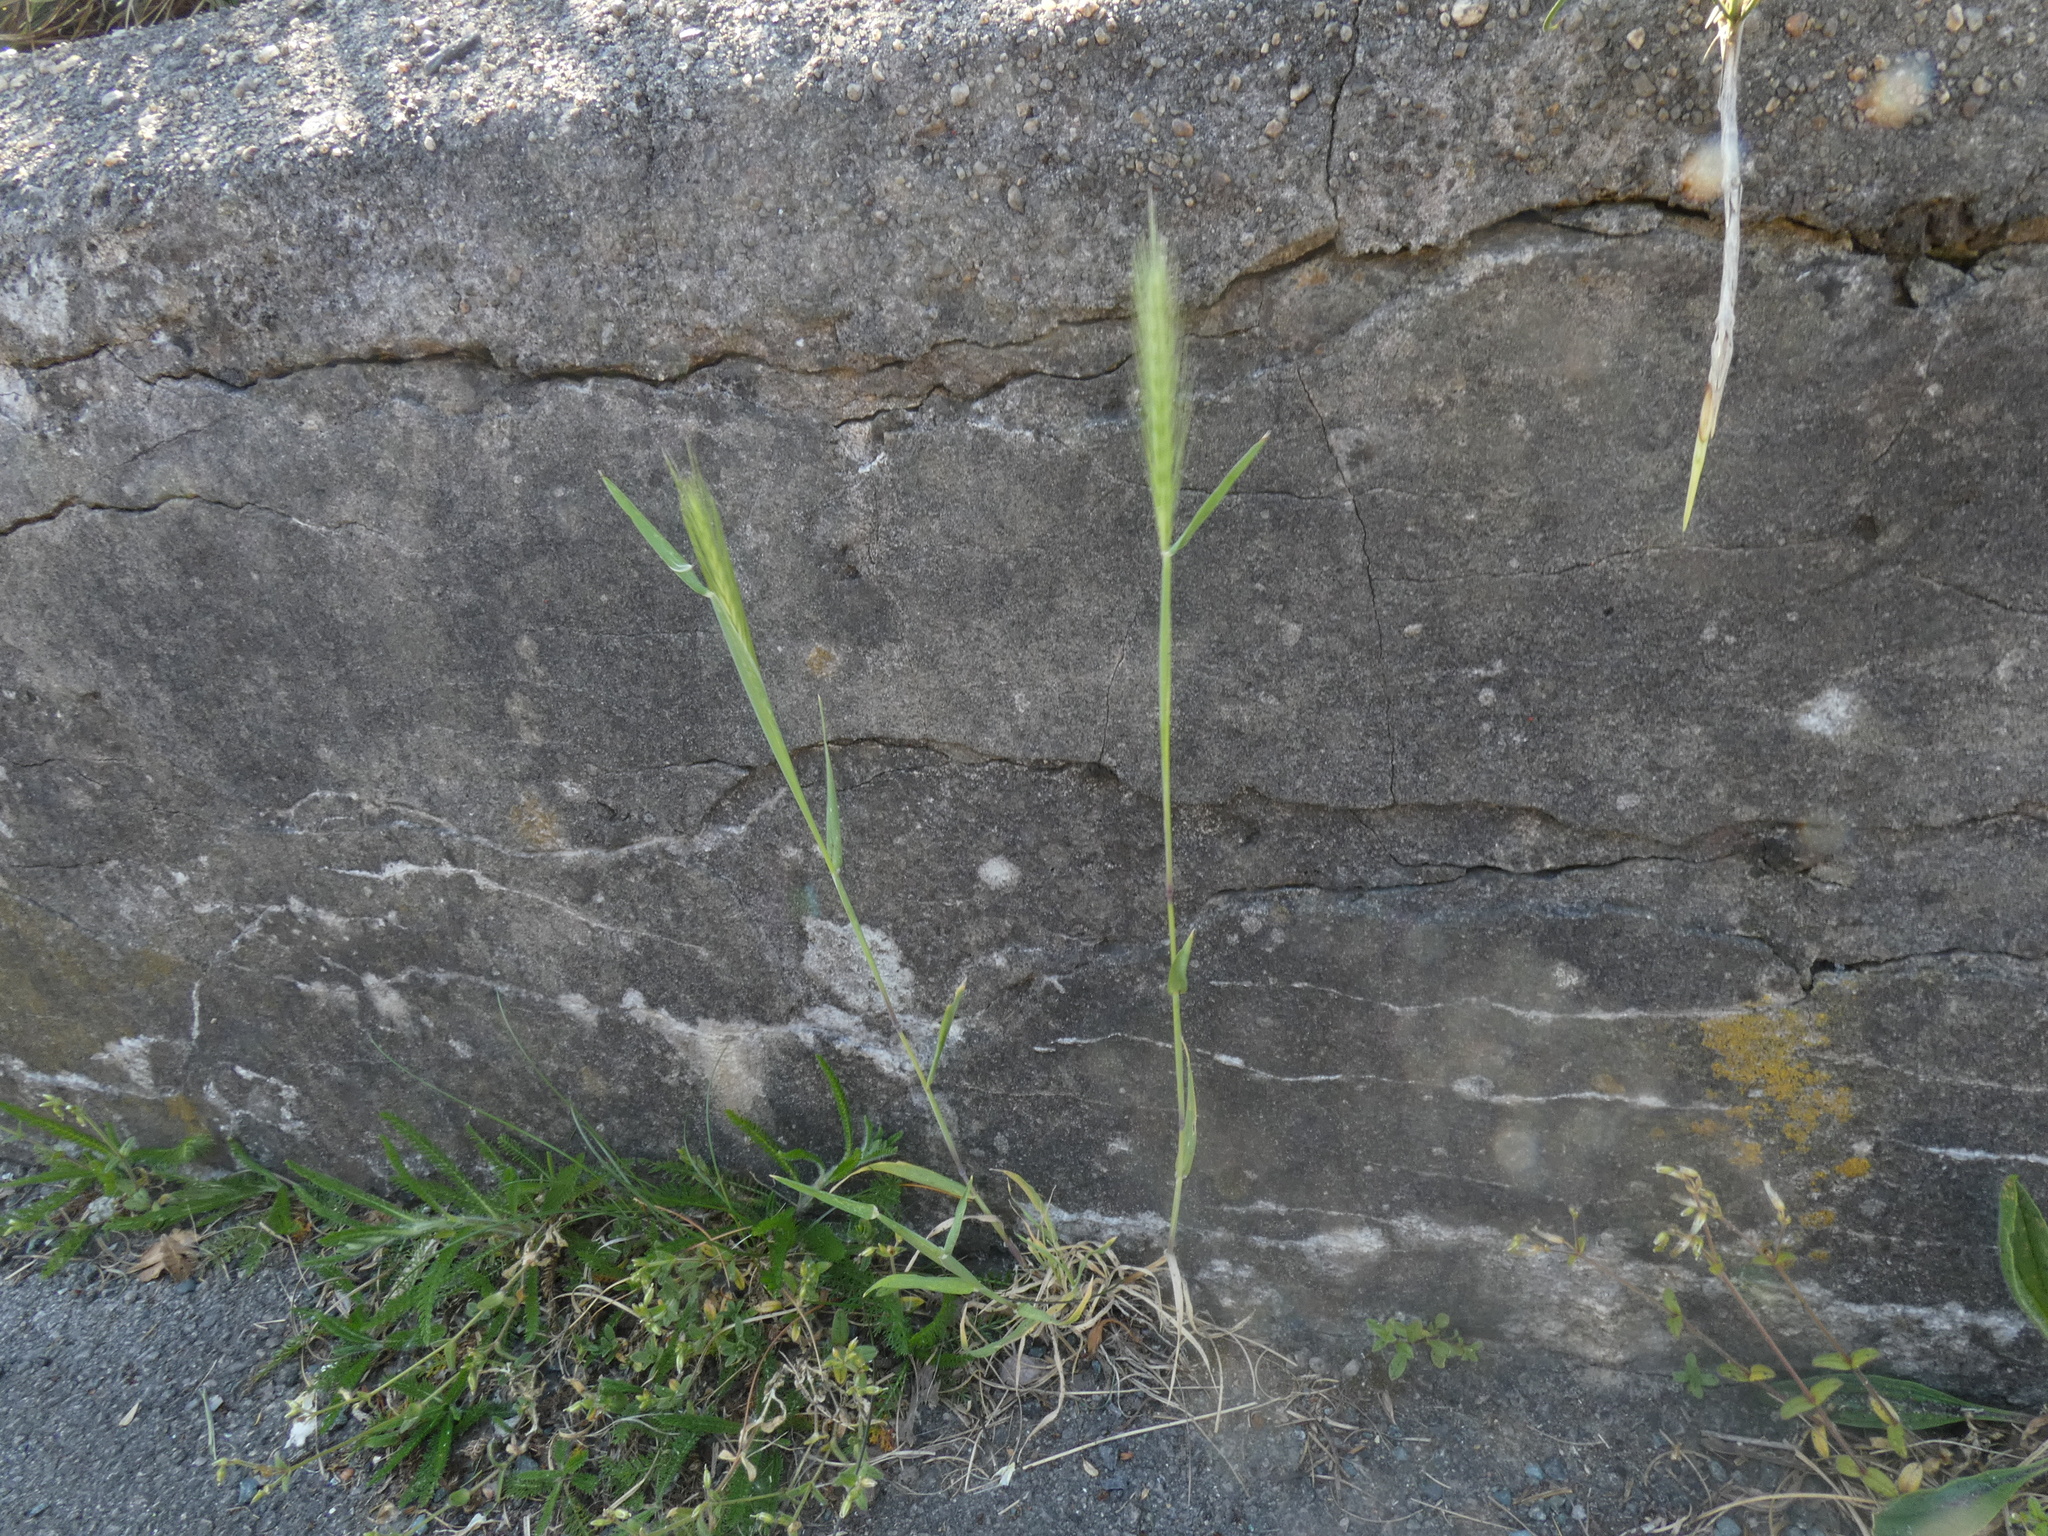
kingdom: Plantae
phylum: Tracheophyta
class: Liliopsida
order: Poales
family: Poaceae
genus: Hordeum
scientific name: Hordeum murinum
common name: Wall barley
